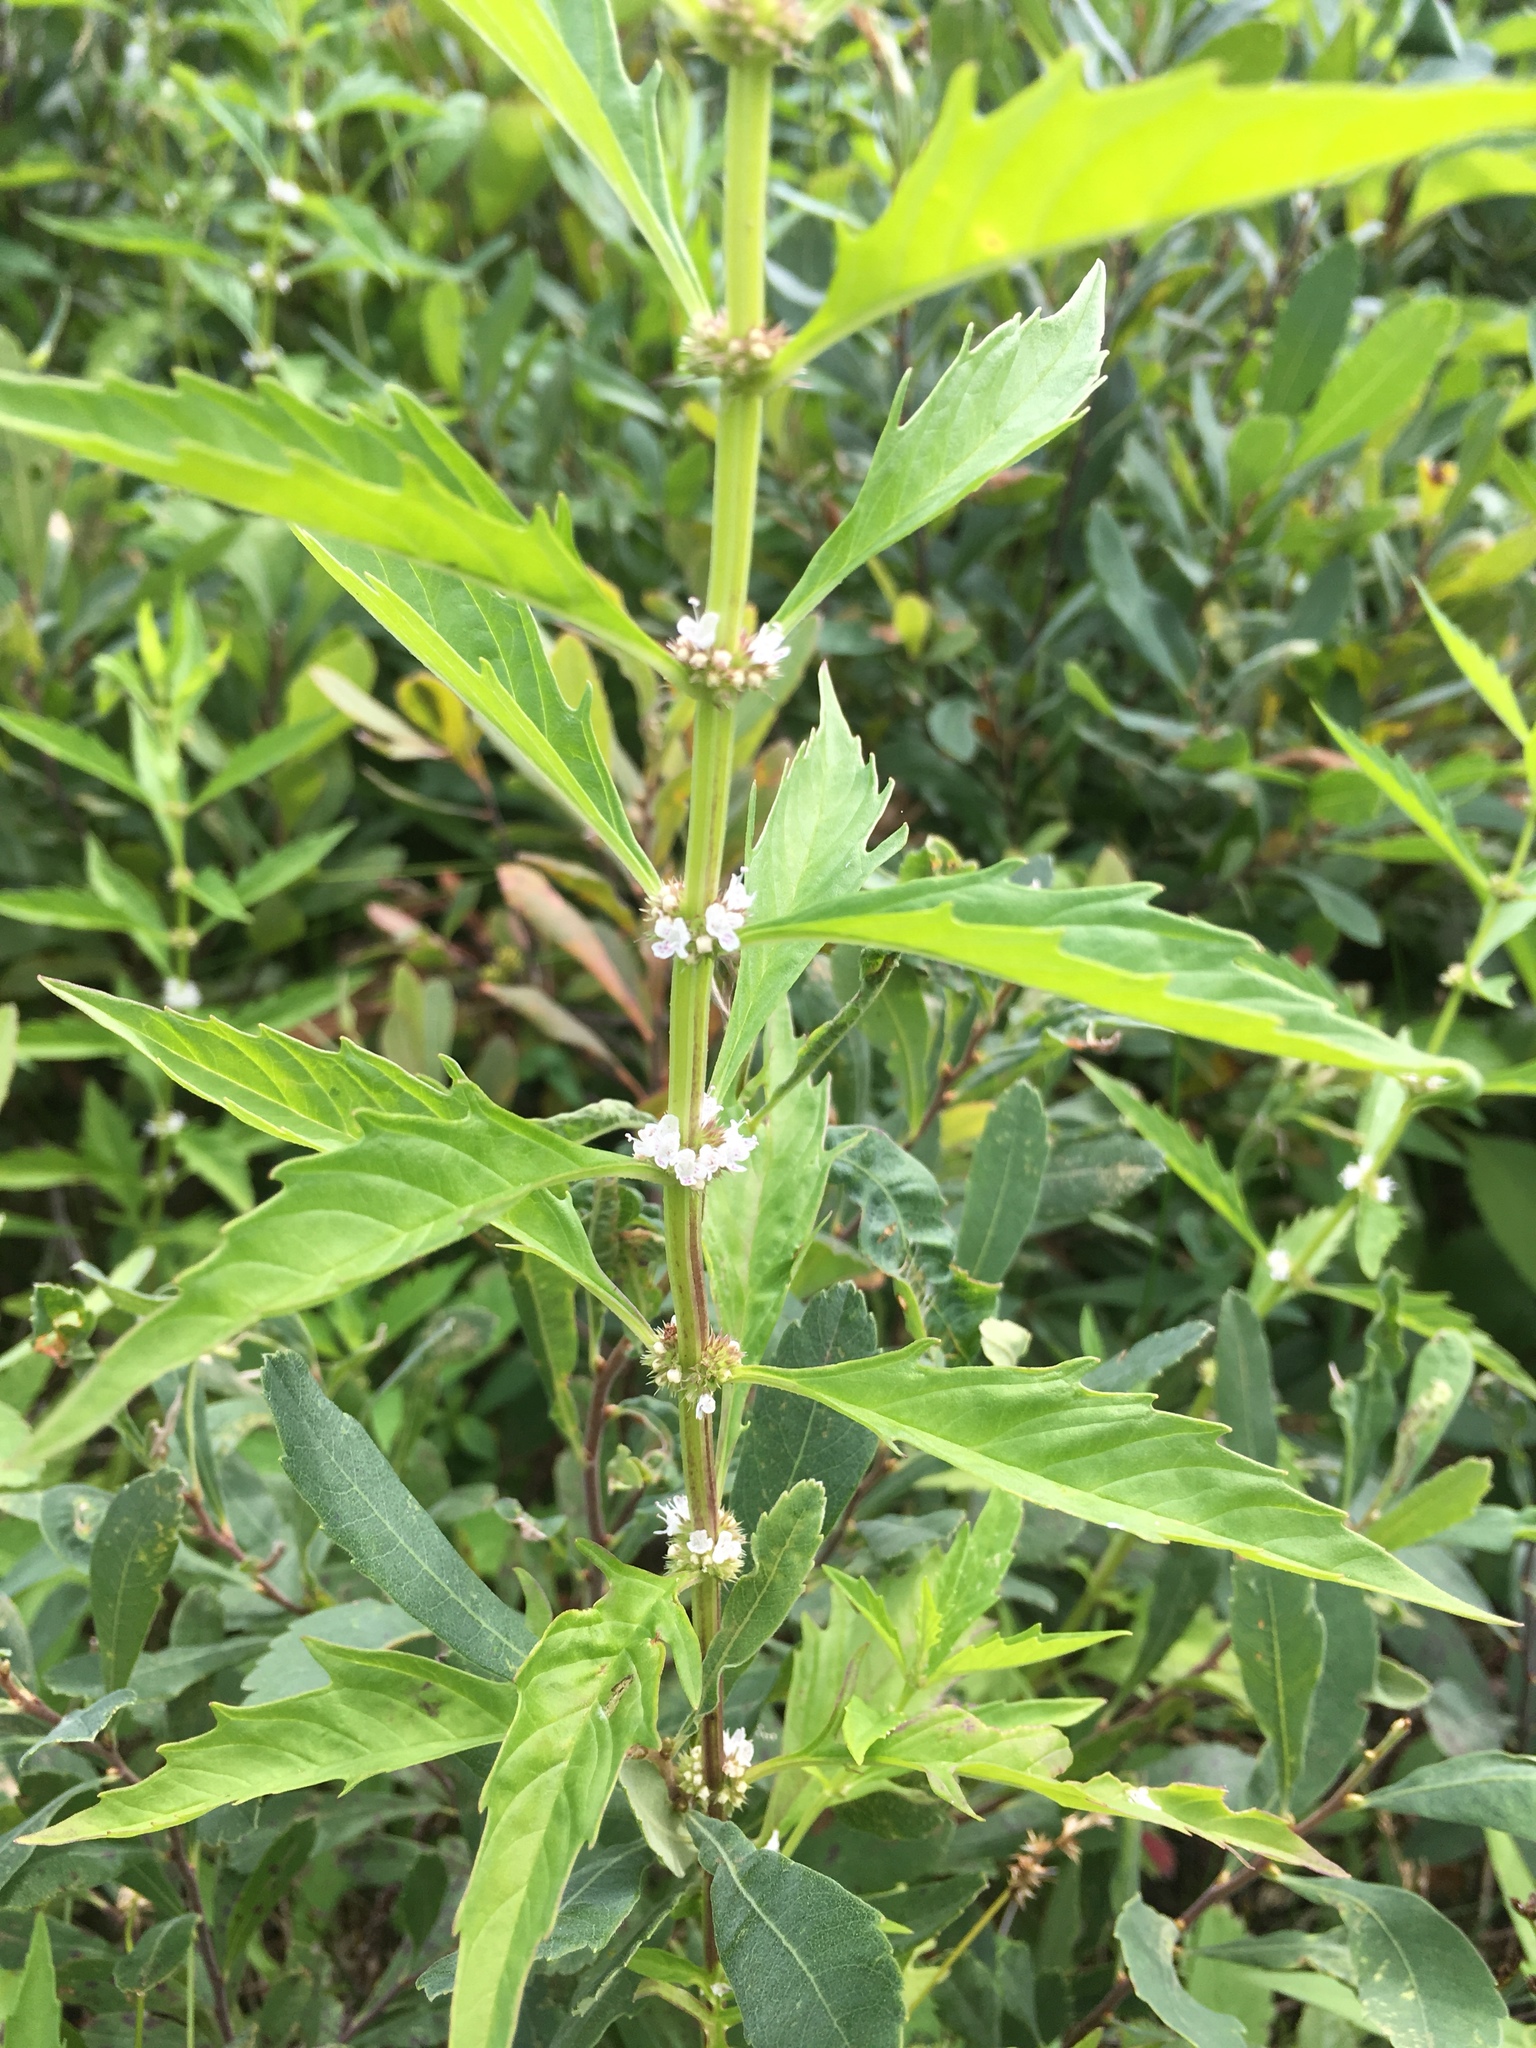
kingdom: Plantae
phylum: Tracheophyta
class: Magnoliopsida
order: Lamiales
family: Lamiaceae
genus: Lycopus
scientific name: Lycopus americanus
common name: American bugleweed
